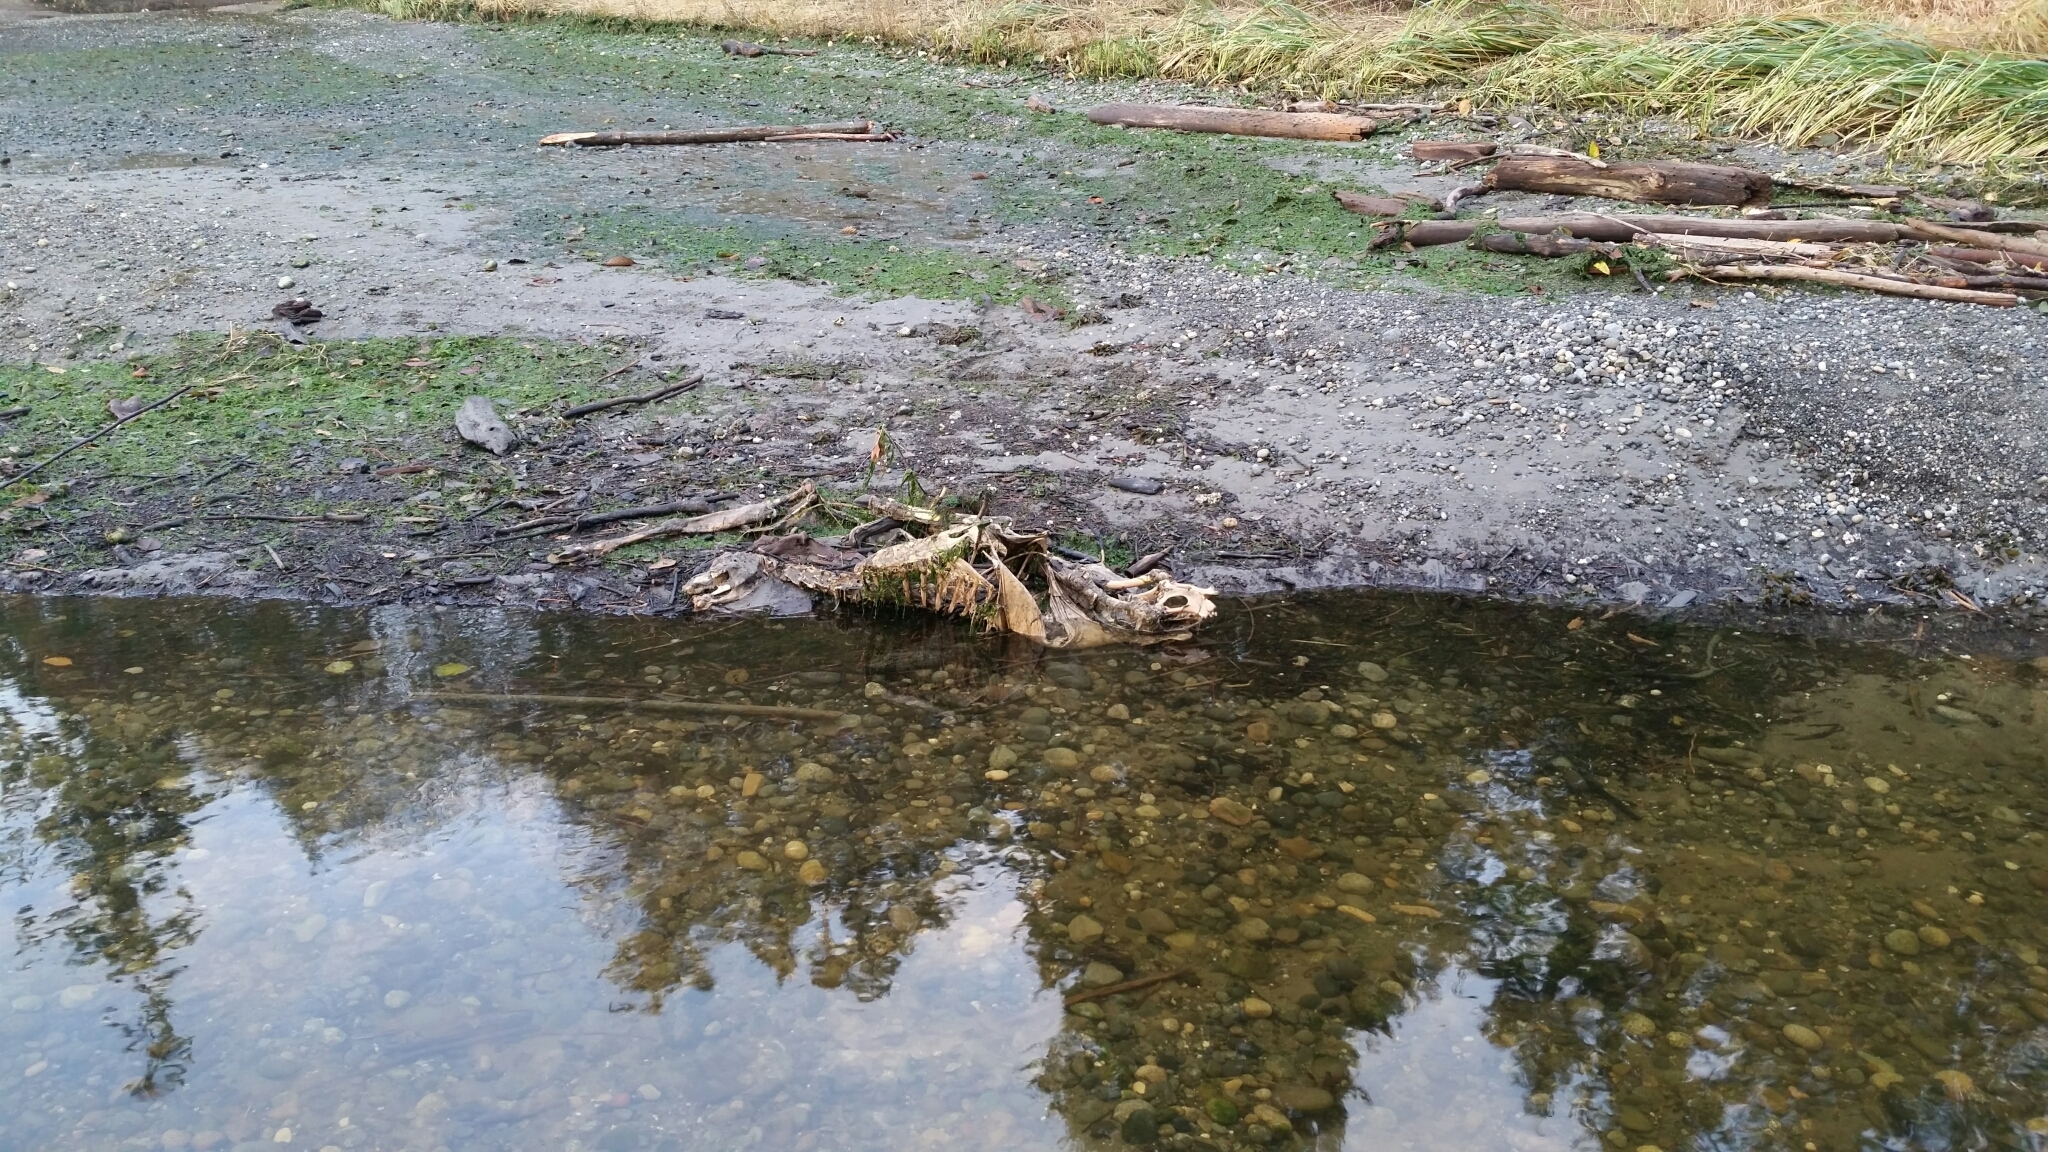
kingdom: Animalia
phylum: Chordata
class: Mammalia
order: Artiodactyla
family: Cervidae
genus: Odocoileus
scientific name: Odocoileus hemionus
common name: Mule deer
